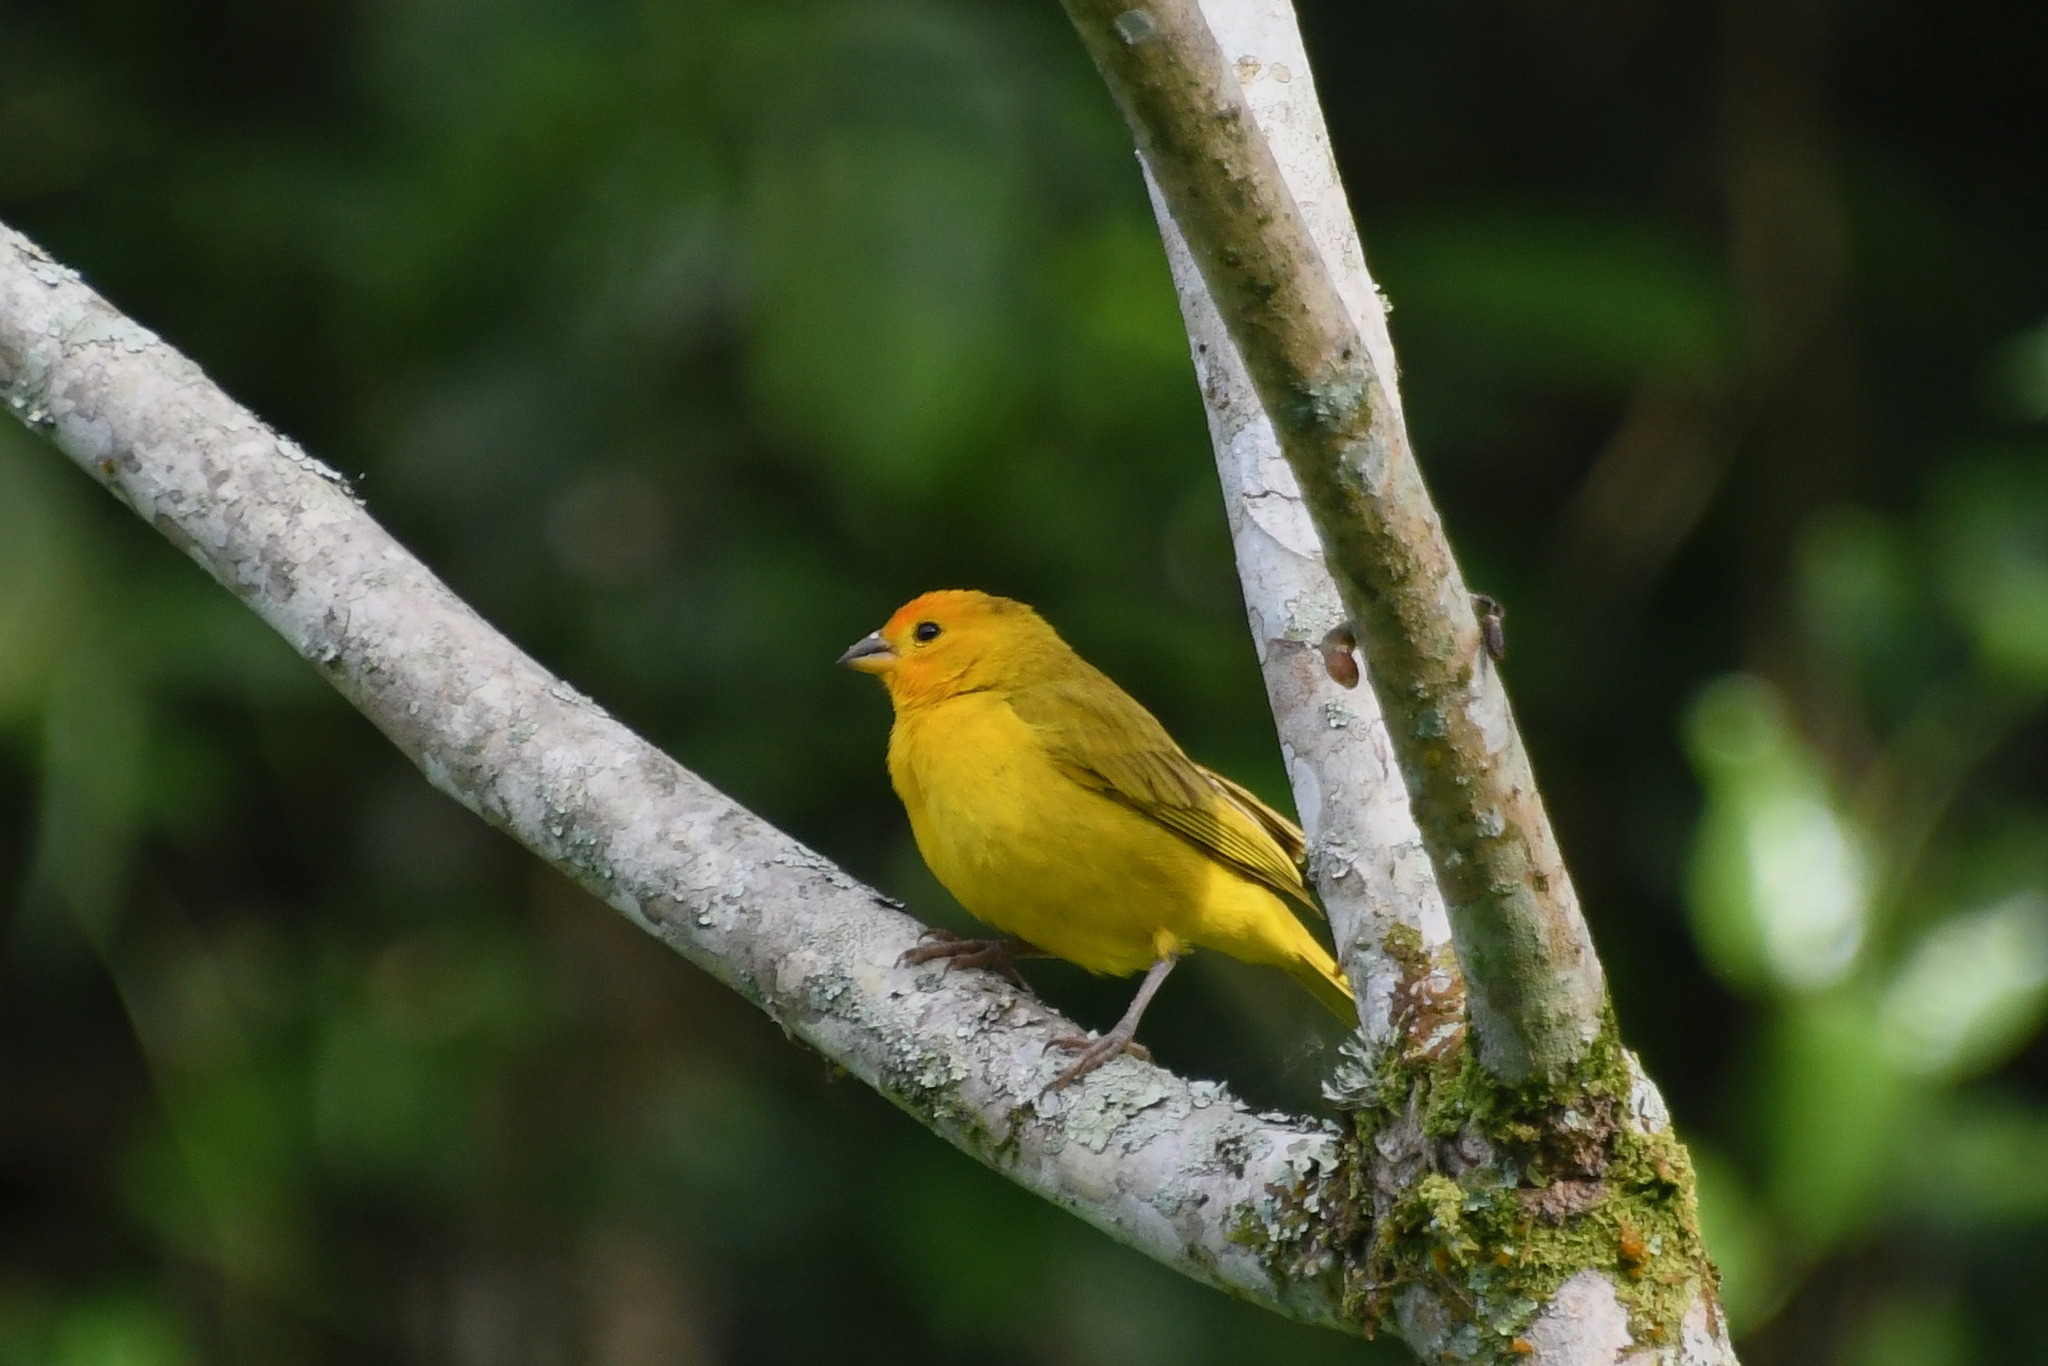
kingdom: Animalia
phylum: Chordata
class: Aves
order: Passeriformes
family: Thraupidae
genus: Sicalis
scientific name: Sicalis flaveola
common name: Saffron finch
